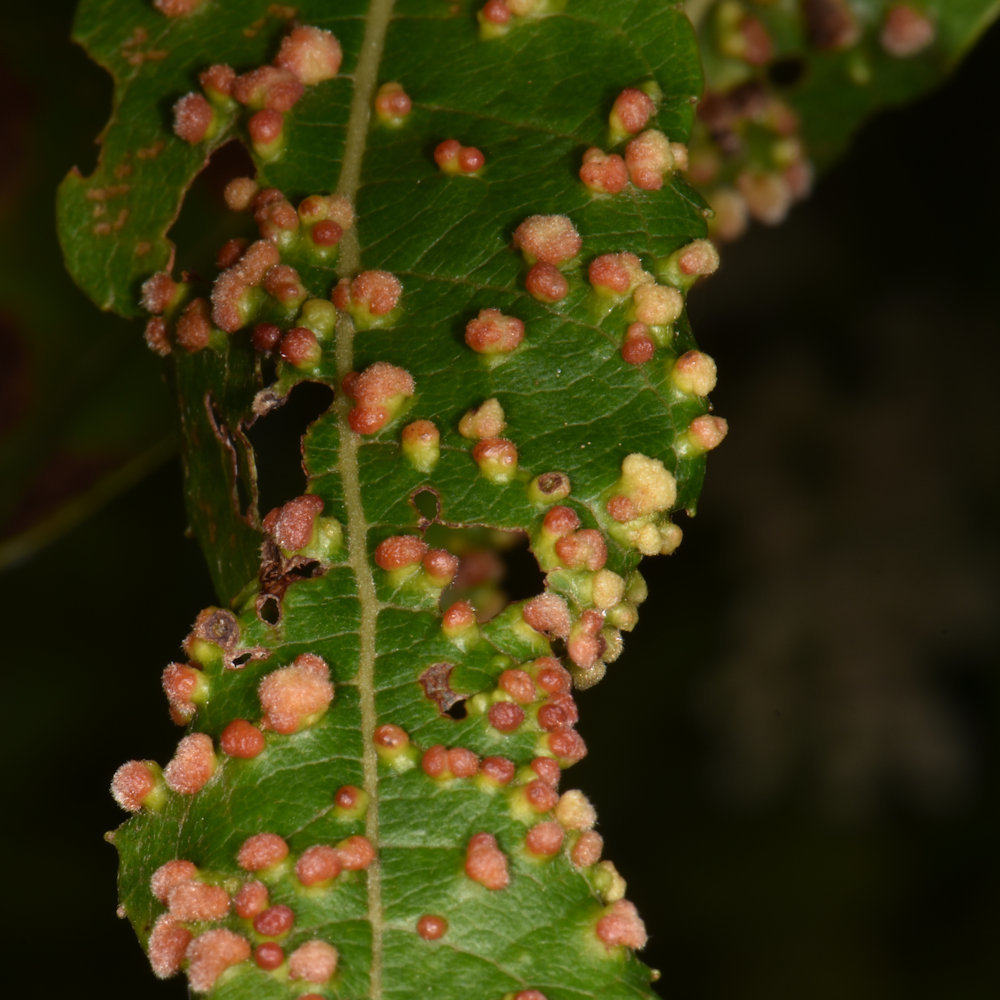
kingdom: Animalia
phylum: Arthropoda
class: Arachnida
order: Trombidiformes
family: Eriophyidae
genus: Aculus
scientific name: Aculus tetanothrix
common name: Willow bead gall mite
